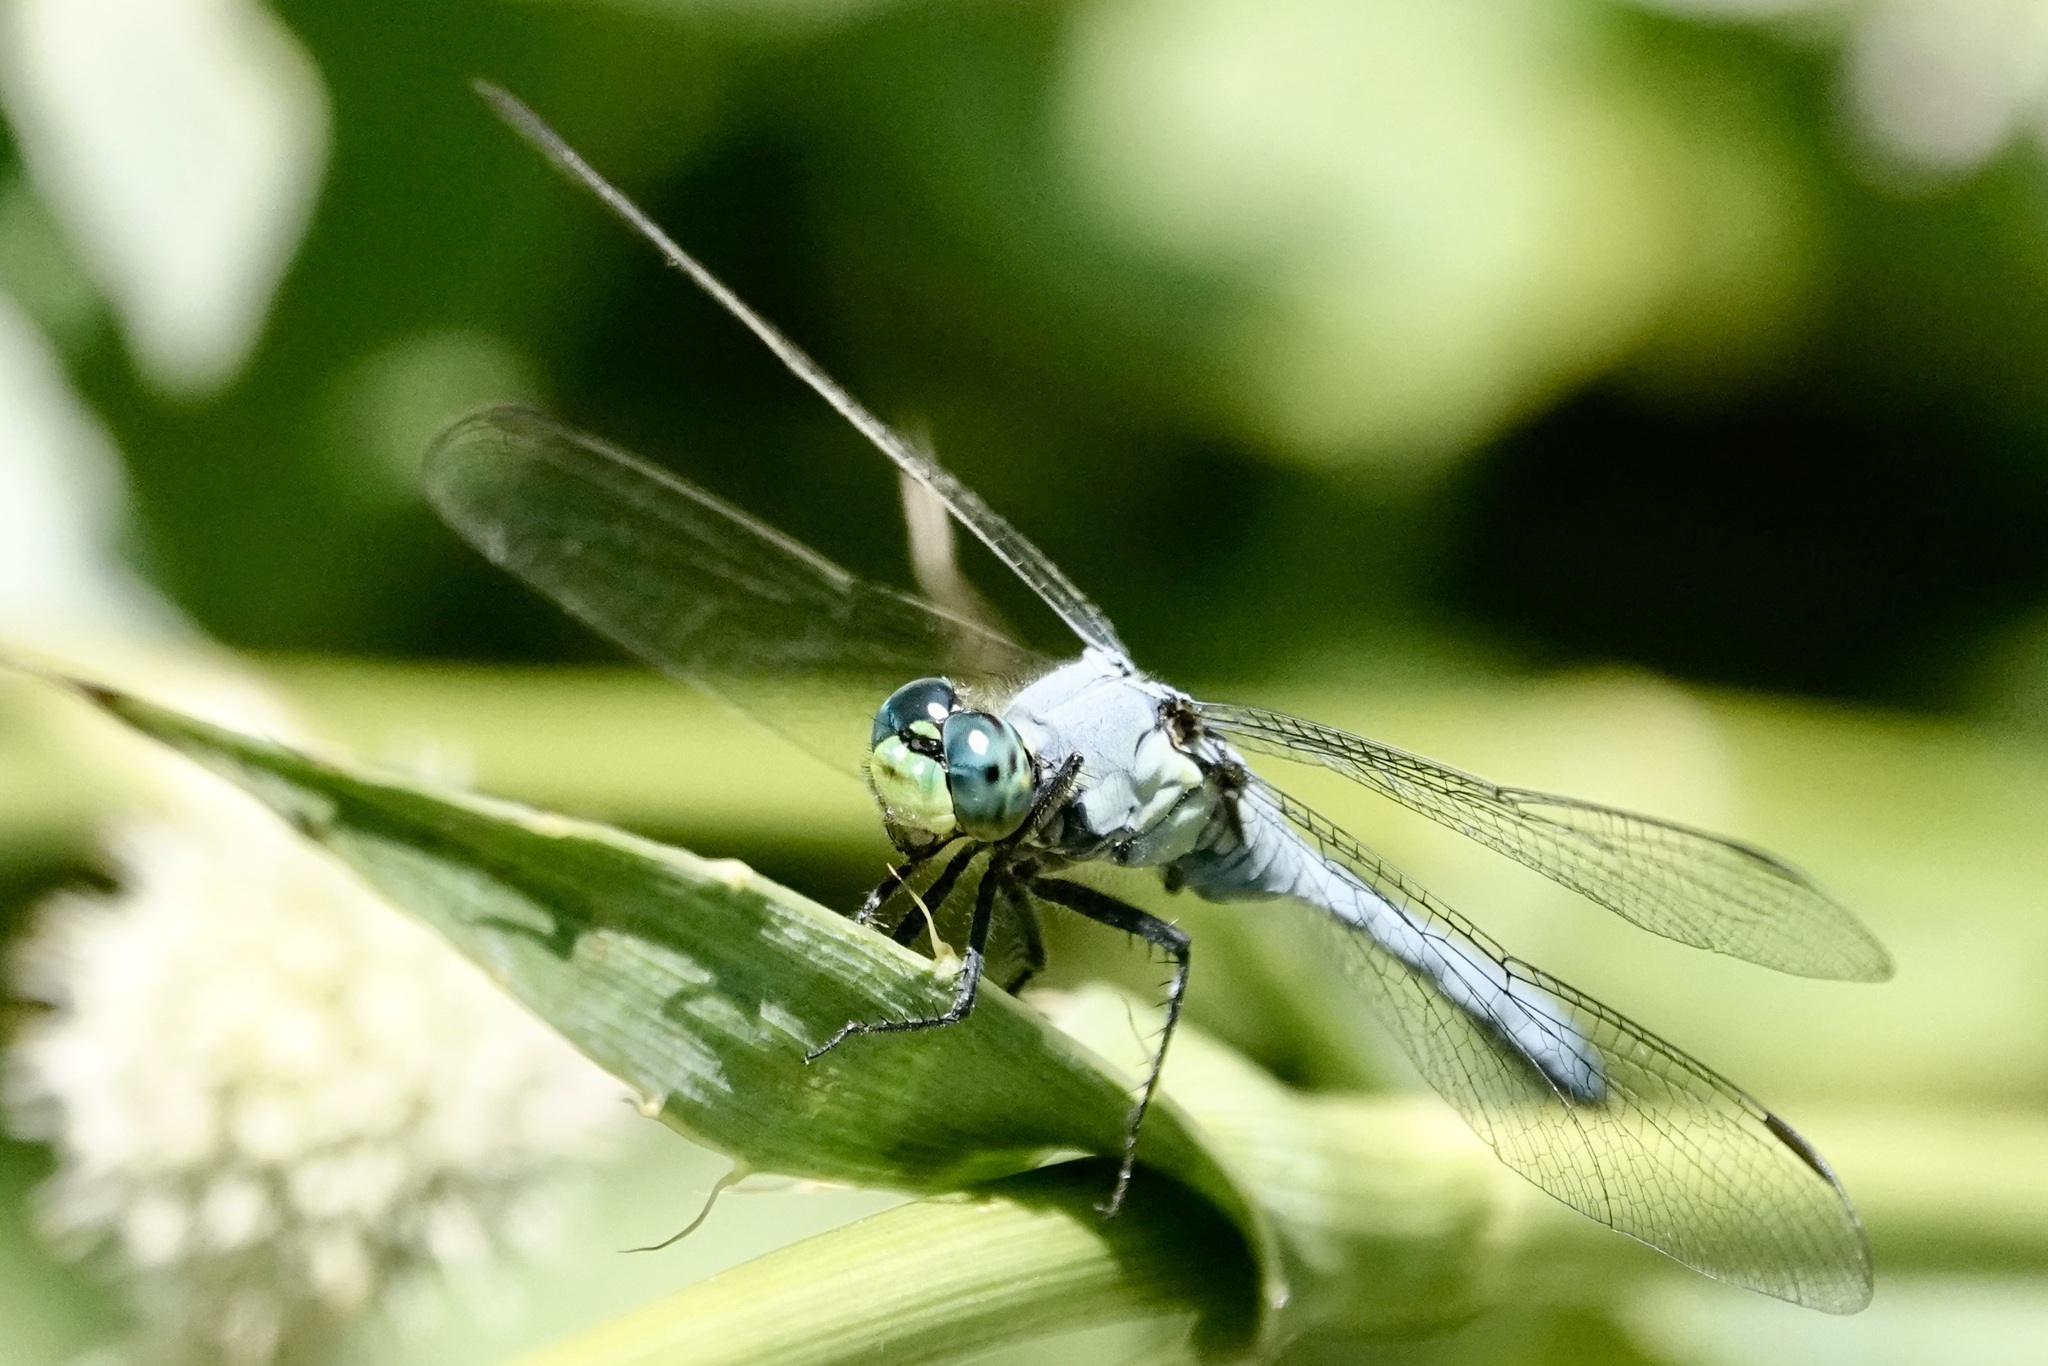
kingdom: Animalia
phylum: Arthropoda
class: Insecta
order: Odonata
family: Libellulidae
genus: Erythemis
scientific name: Erythemis simplicicollis
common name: Eastern pondhawk
